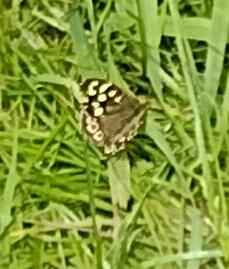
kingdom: Animalia
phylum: Arthropoda
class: Insecta
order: Lepidoptera
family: Nymphalidae
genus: Pararge
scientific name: Pararge aegeria
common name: Speckled wood
